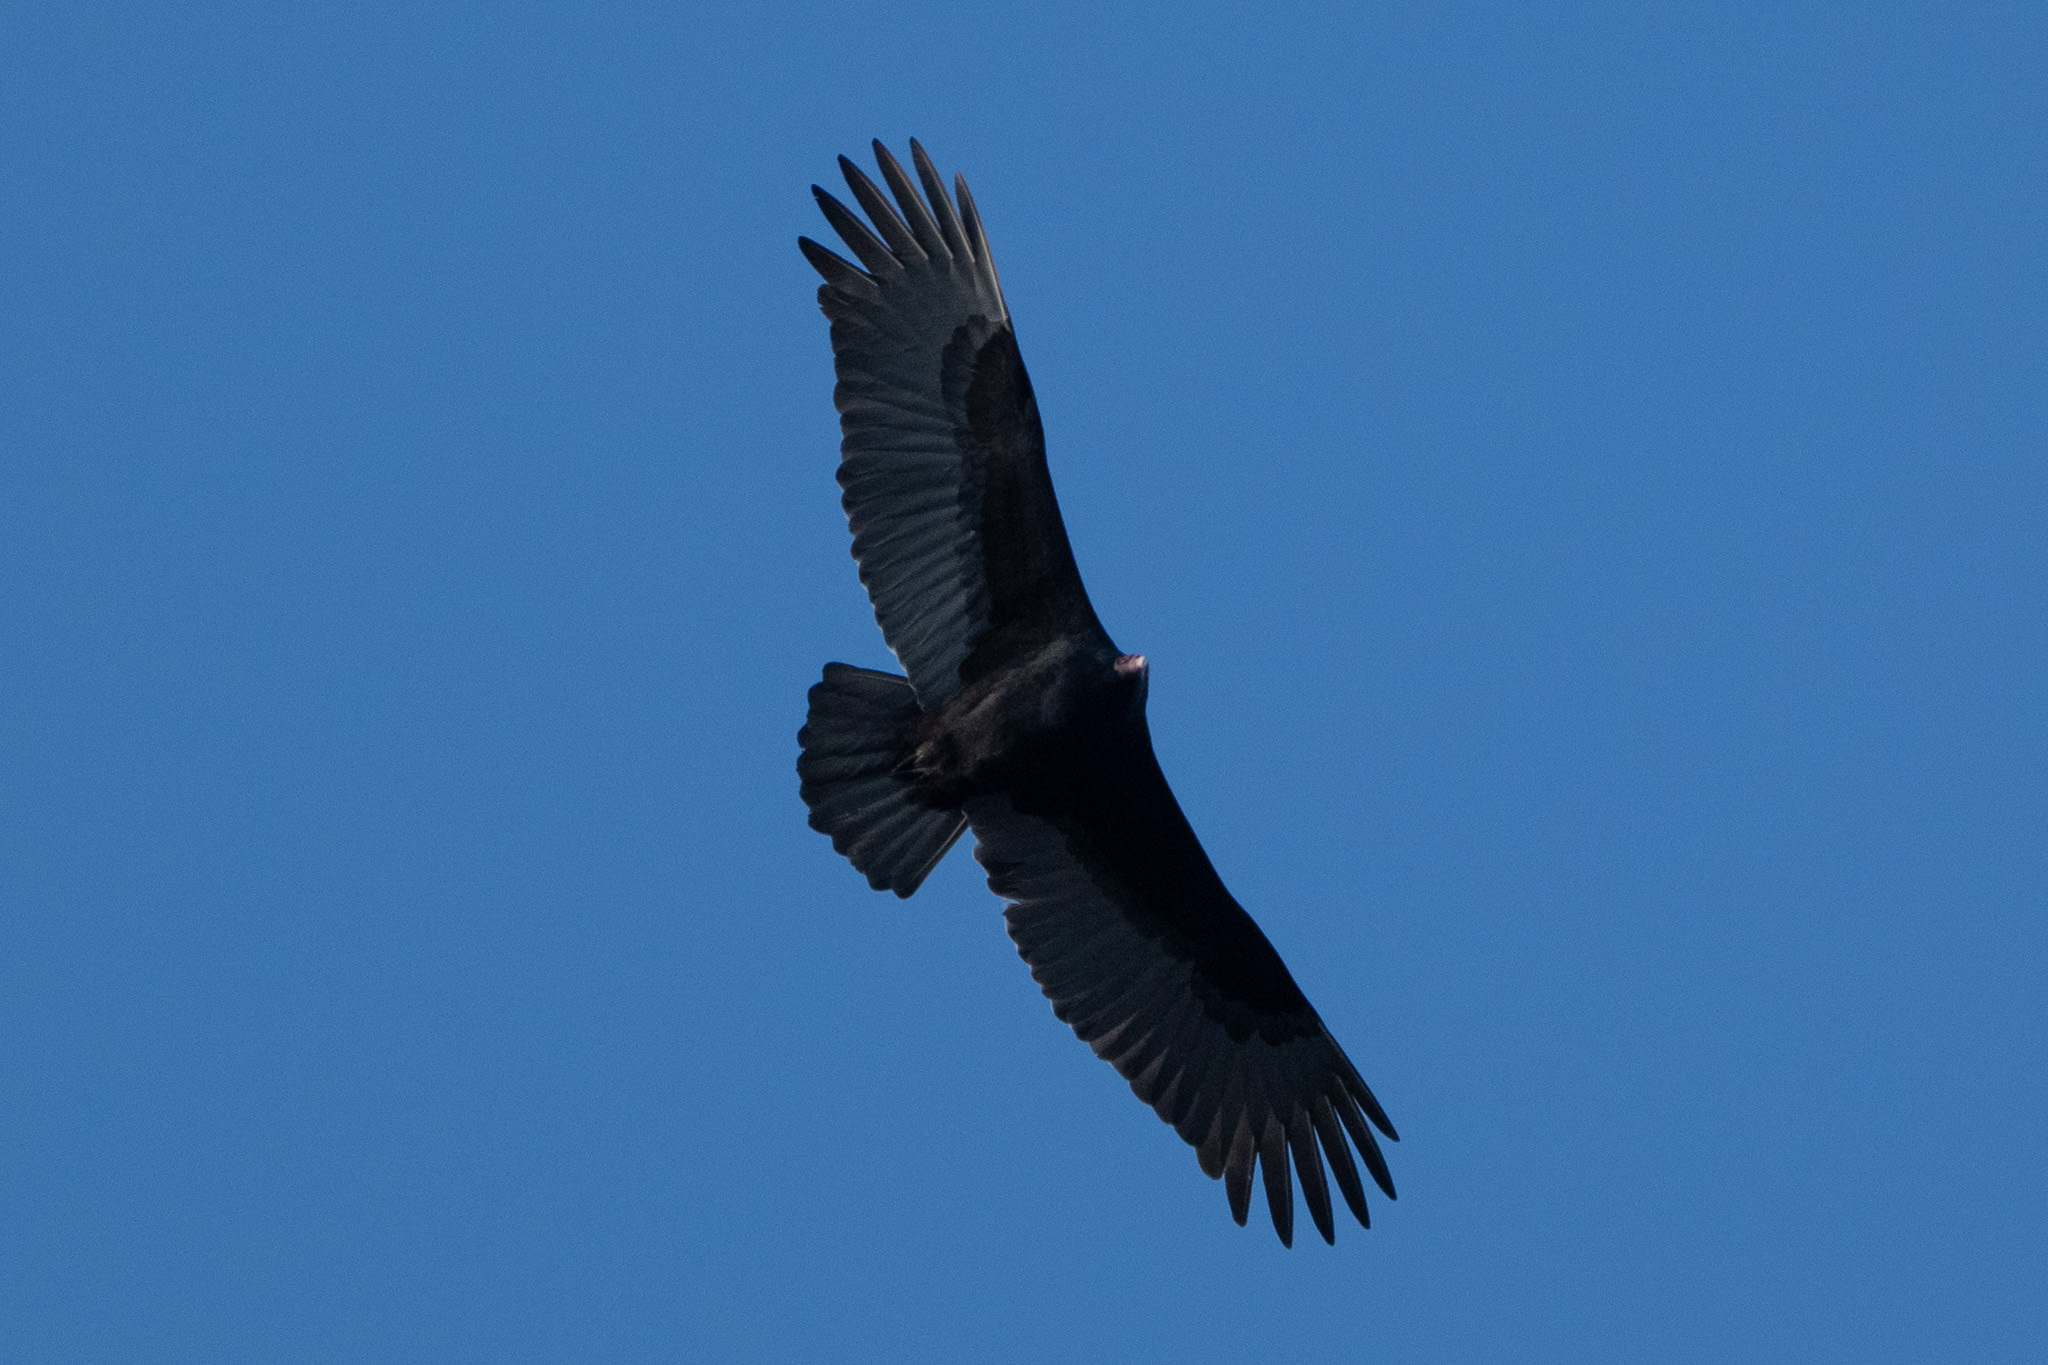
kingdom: Animalia
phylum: Chordata
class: Aves
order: Accipitriformes
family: Cathartidae
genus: Cathartes
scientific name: Cathartes aura
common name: Turkey vulture
